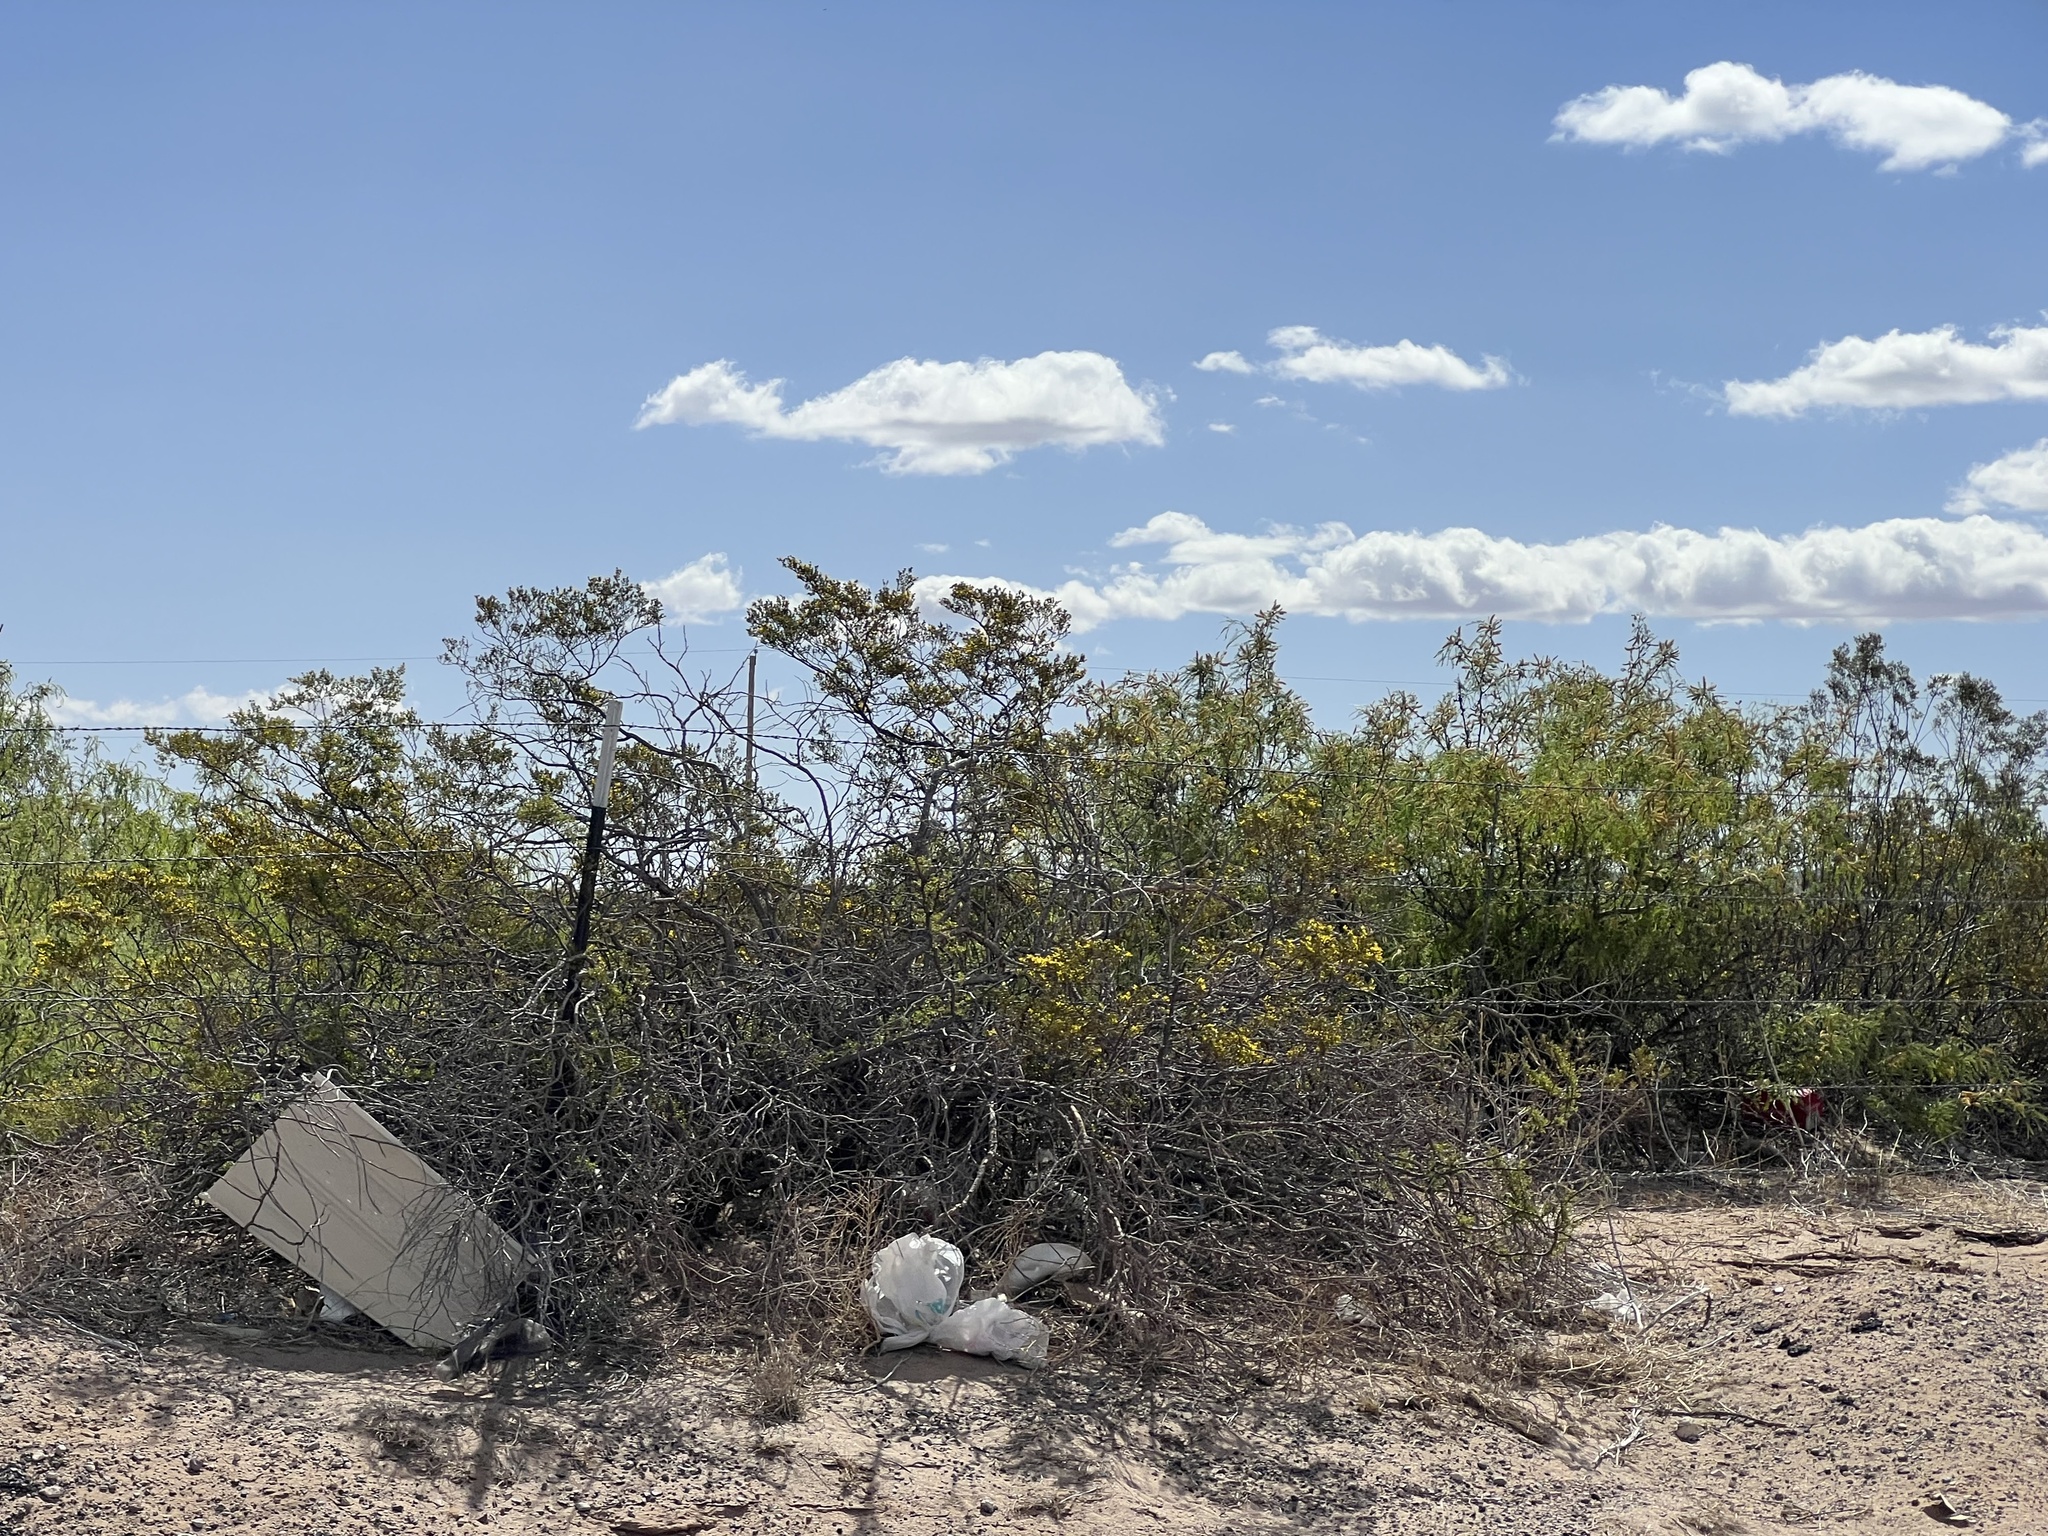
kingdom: Plantae
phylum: Tracheophyta
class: Magnoliopsida
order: Zygophyllales
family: Zygophyllaceae
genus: Larrea
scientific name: Larrea tridentata
